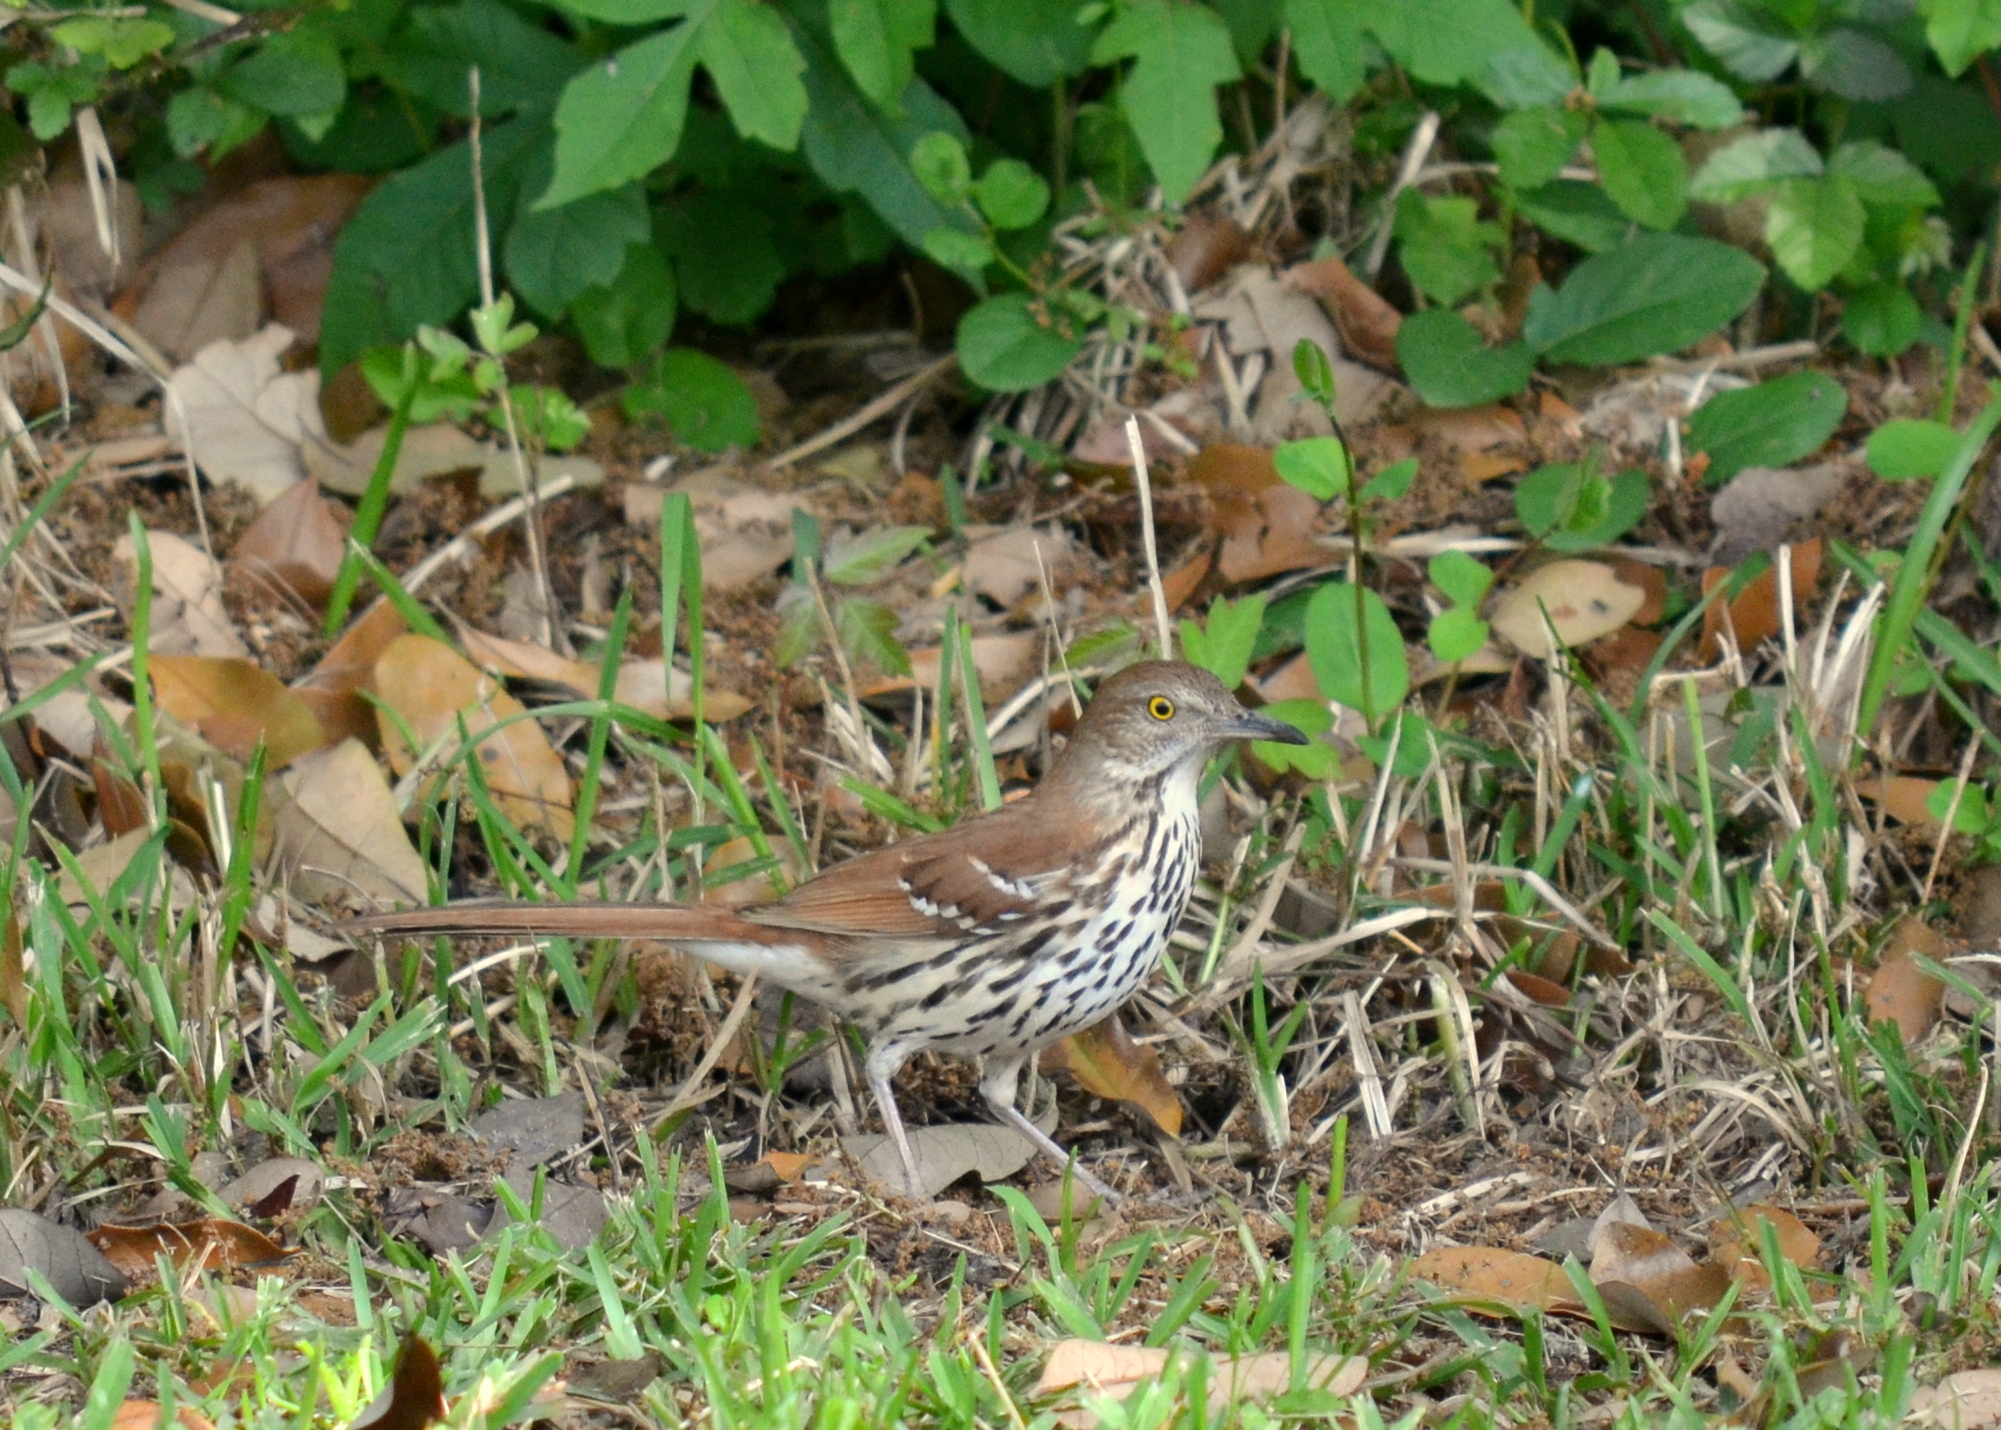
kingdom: Animalia
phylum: Chordata
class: Aves
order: Passeriformes
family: Mimidae
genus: Toxostoma
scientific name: Toxostoma rufum
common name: Brown thrasher
